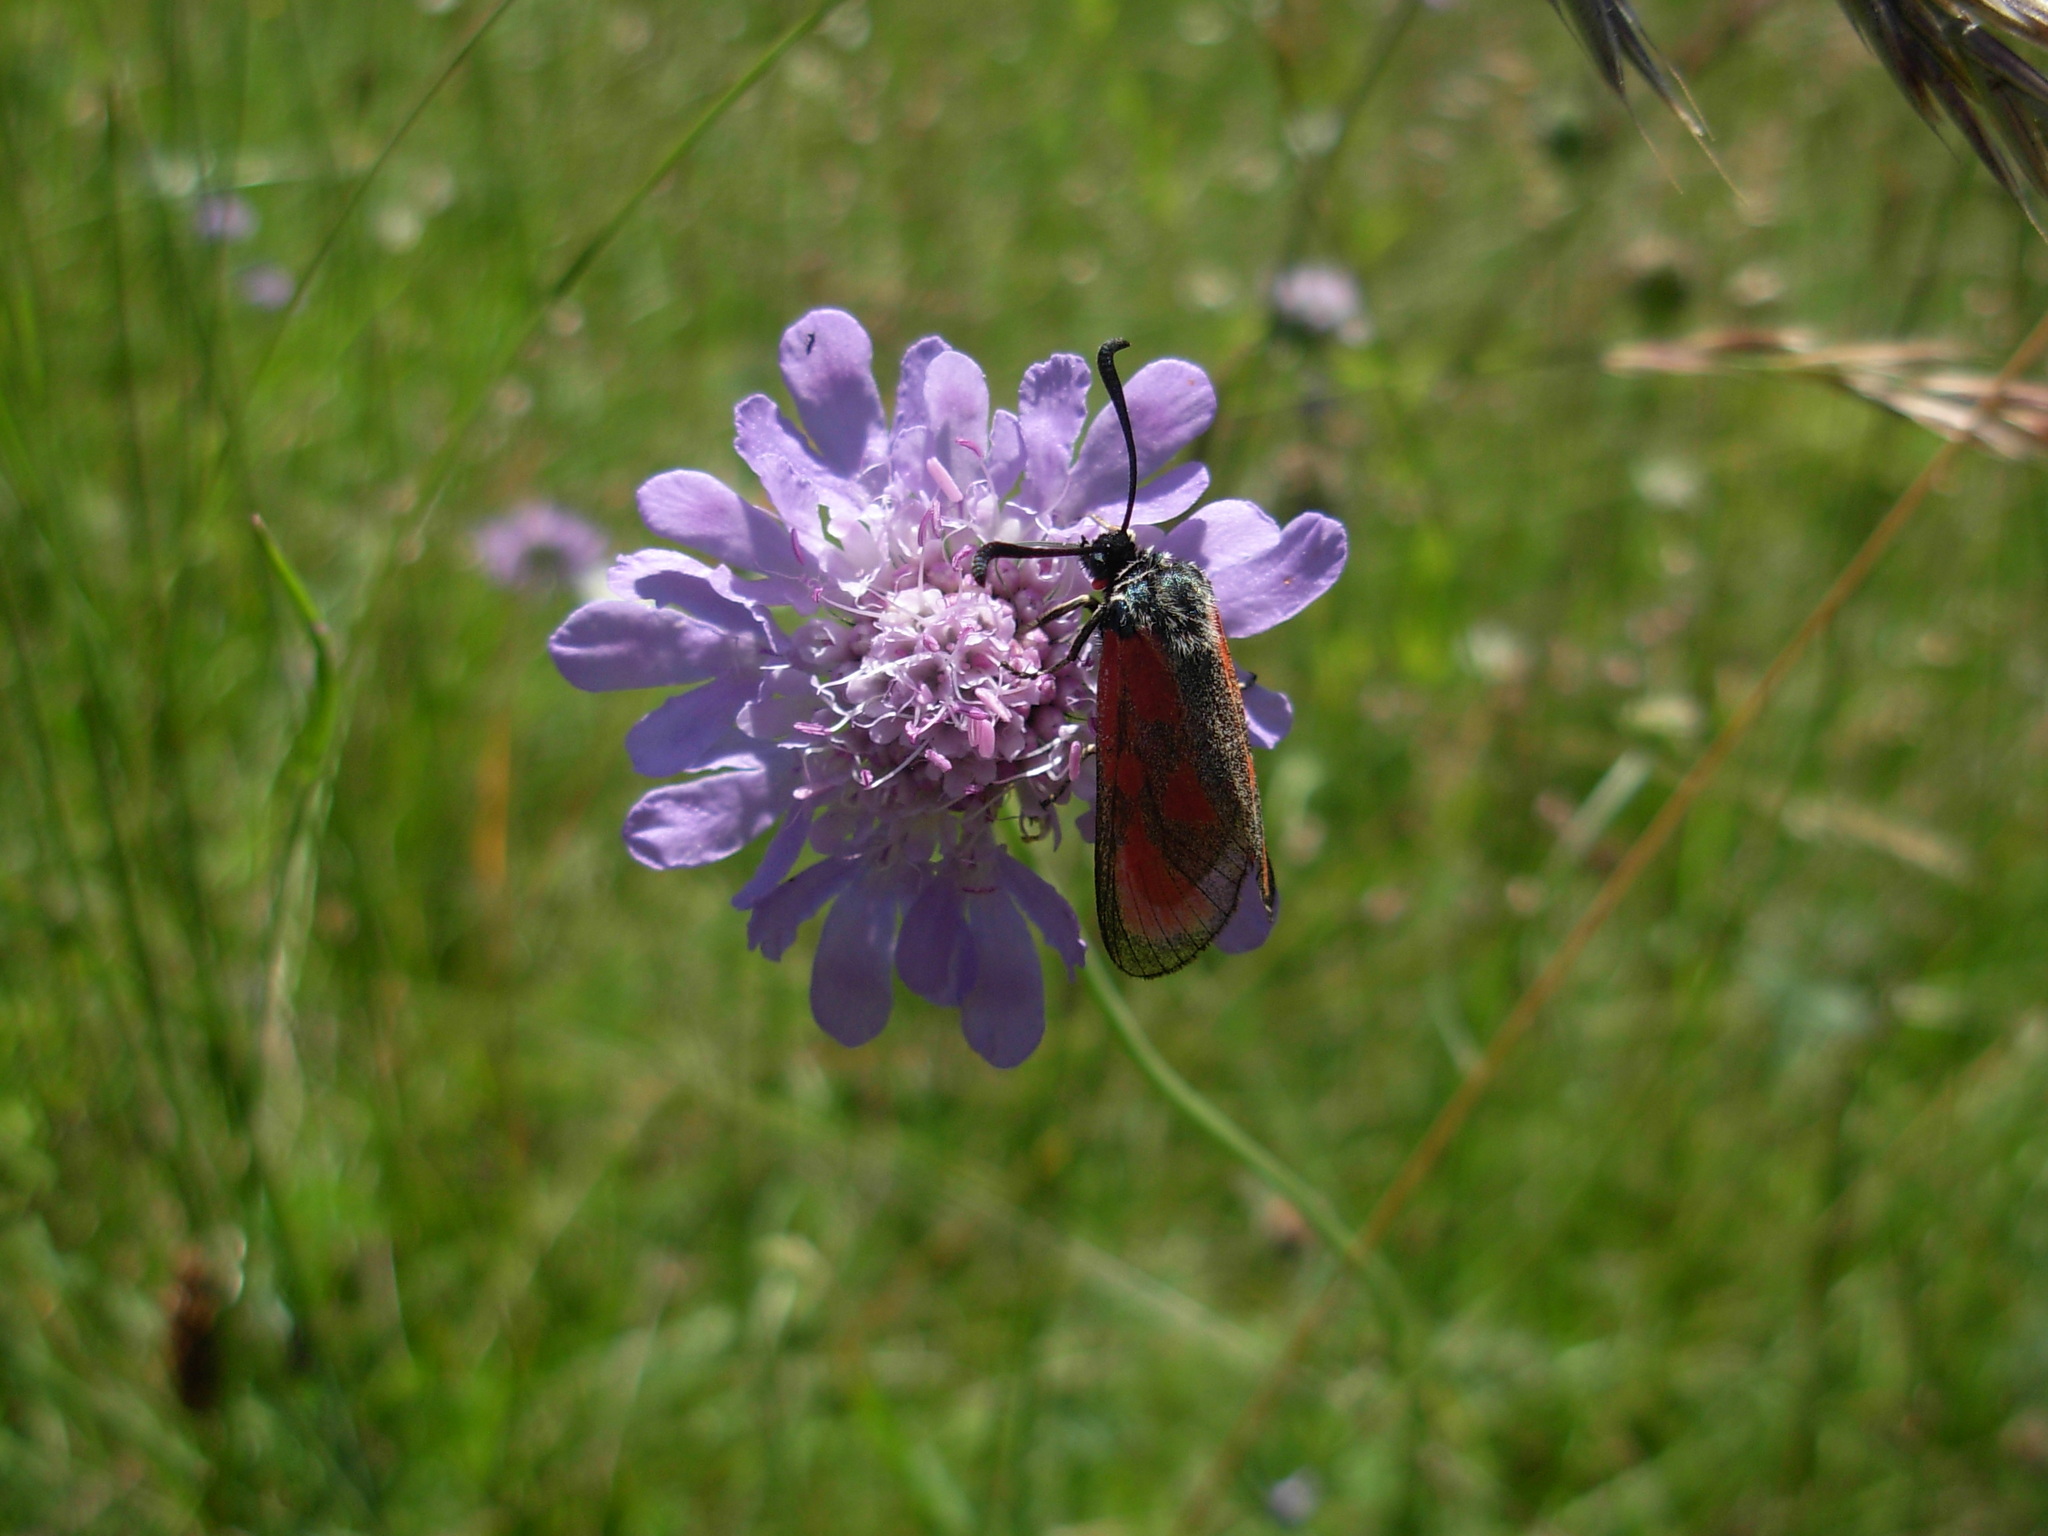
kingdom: Animalia
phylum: Arthropoda
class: Insecta
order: Lepidoptera
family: Zygaenidae
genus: Zygaena
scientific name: Zygaena loti
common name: Slender scotch burnet
